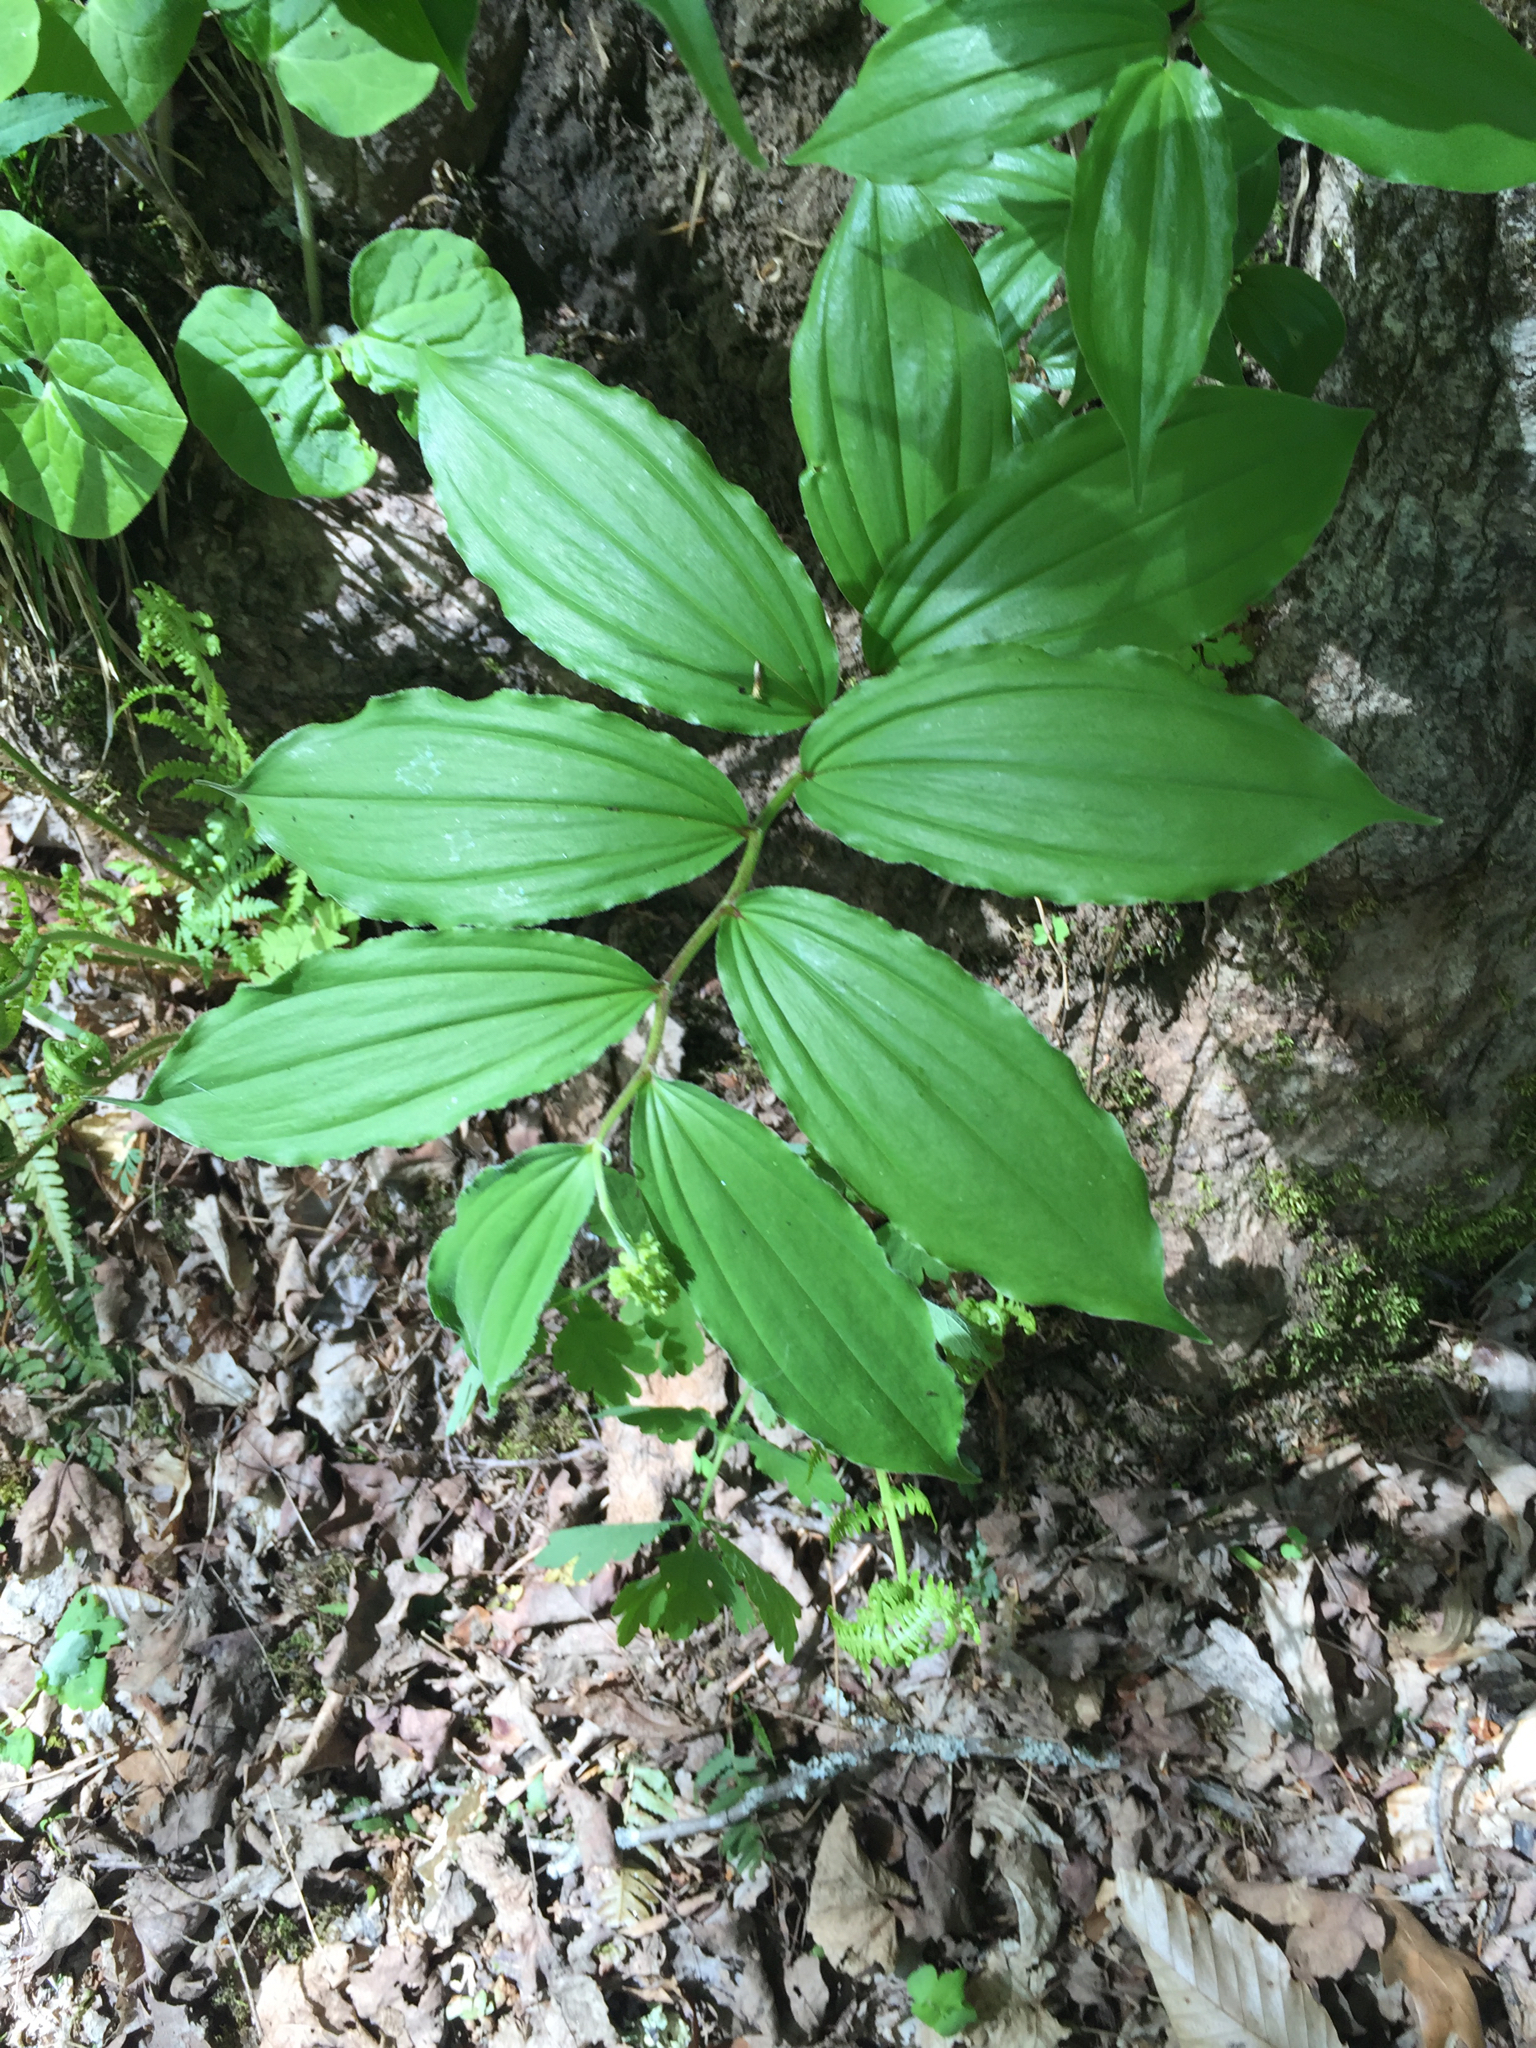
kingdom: Plantae
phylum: Tracheophyta
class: Liliopsida
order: Asparagales
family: Asparagaceae
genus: Maianthemum
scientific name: Maianthemum racemosum
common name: False spikenard
